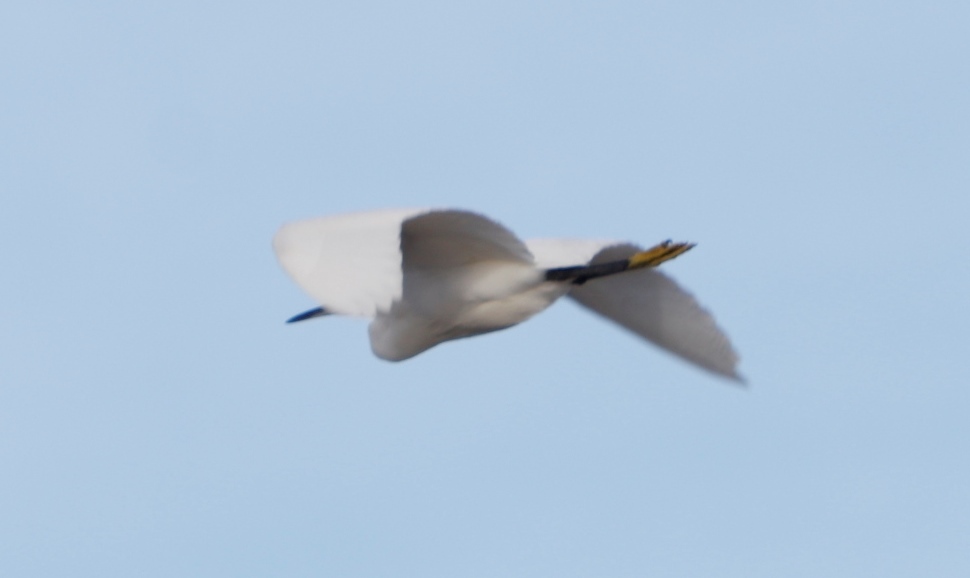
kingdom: Animalia
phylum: Chordata
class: Aves
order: Pelecaniformes
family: Ardeidae
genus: Egretta
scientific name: Egretta garzetta
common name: Little egret
